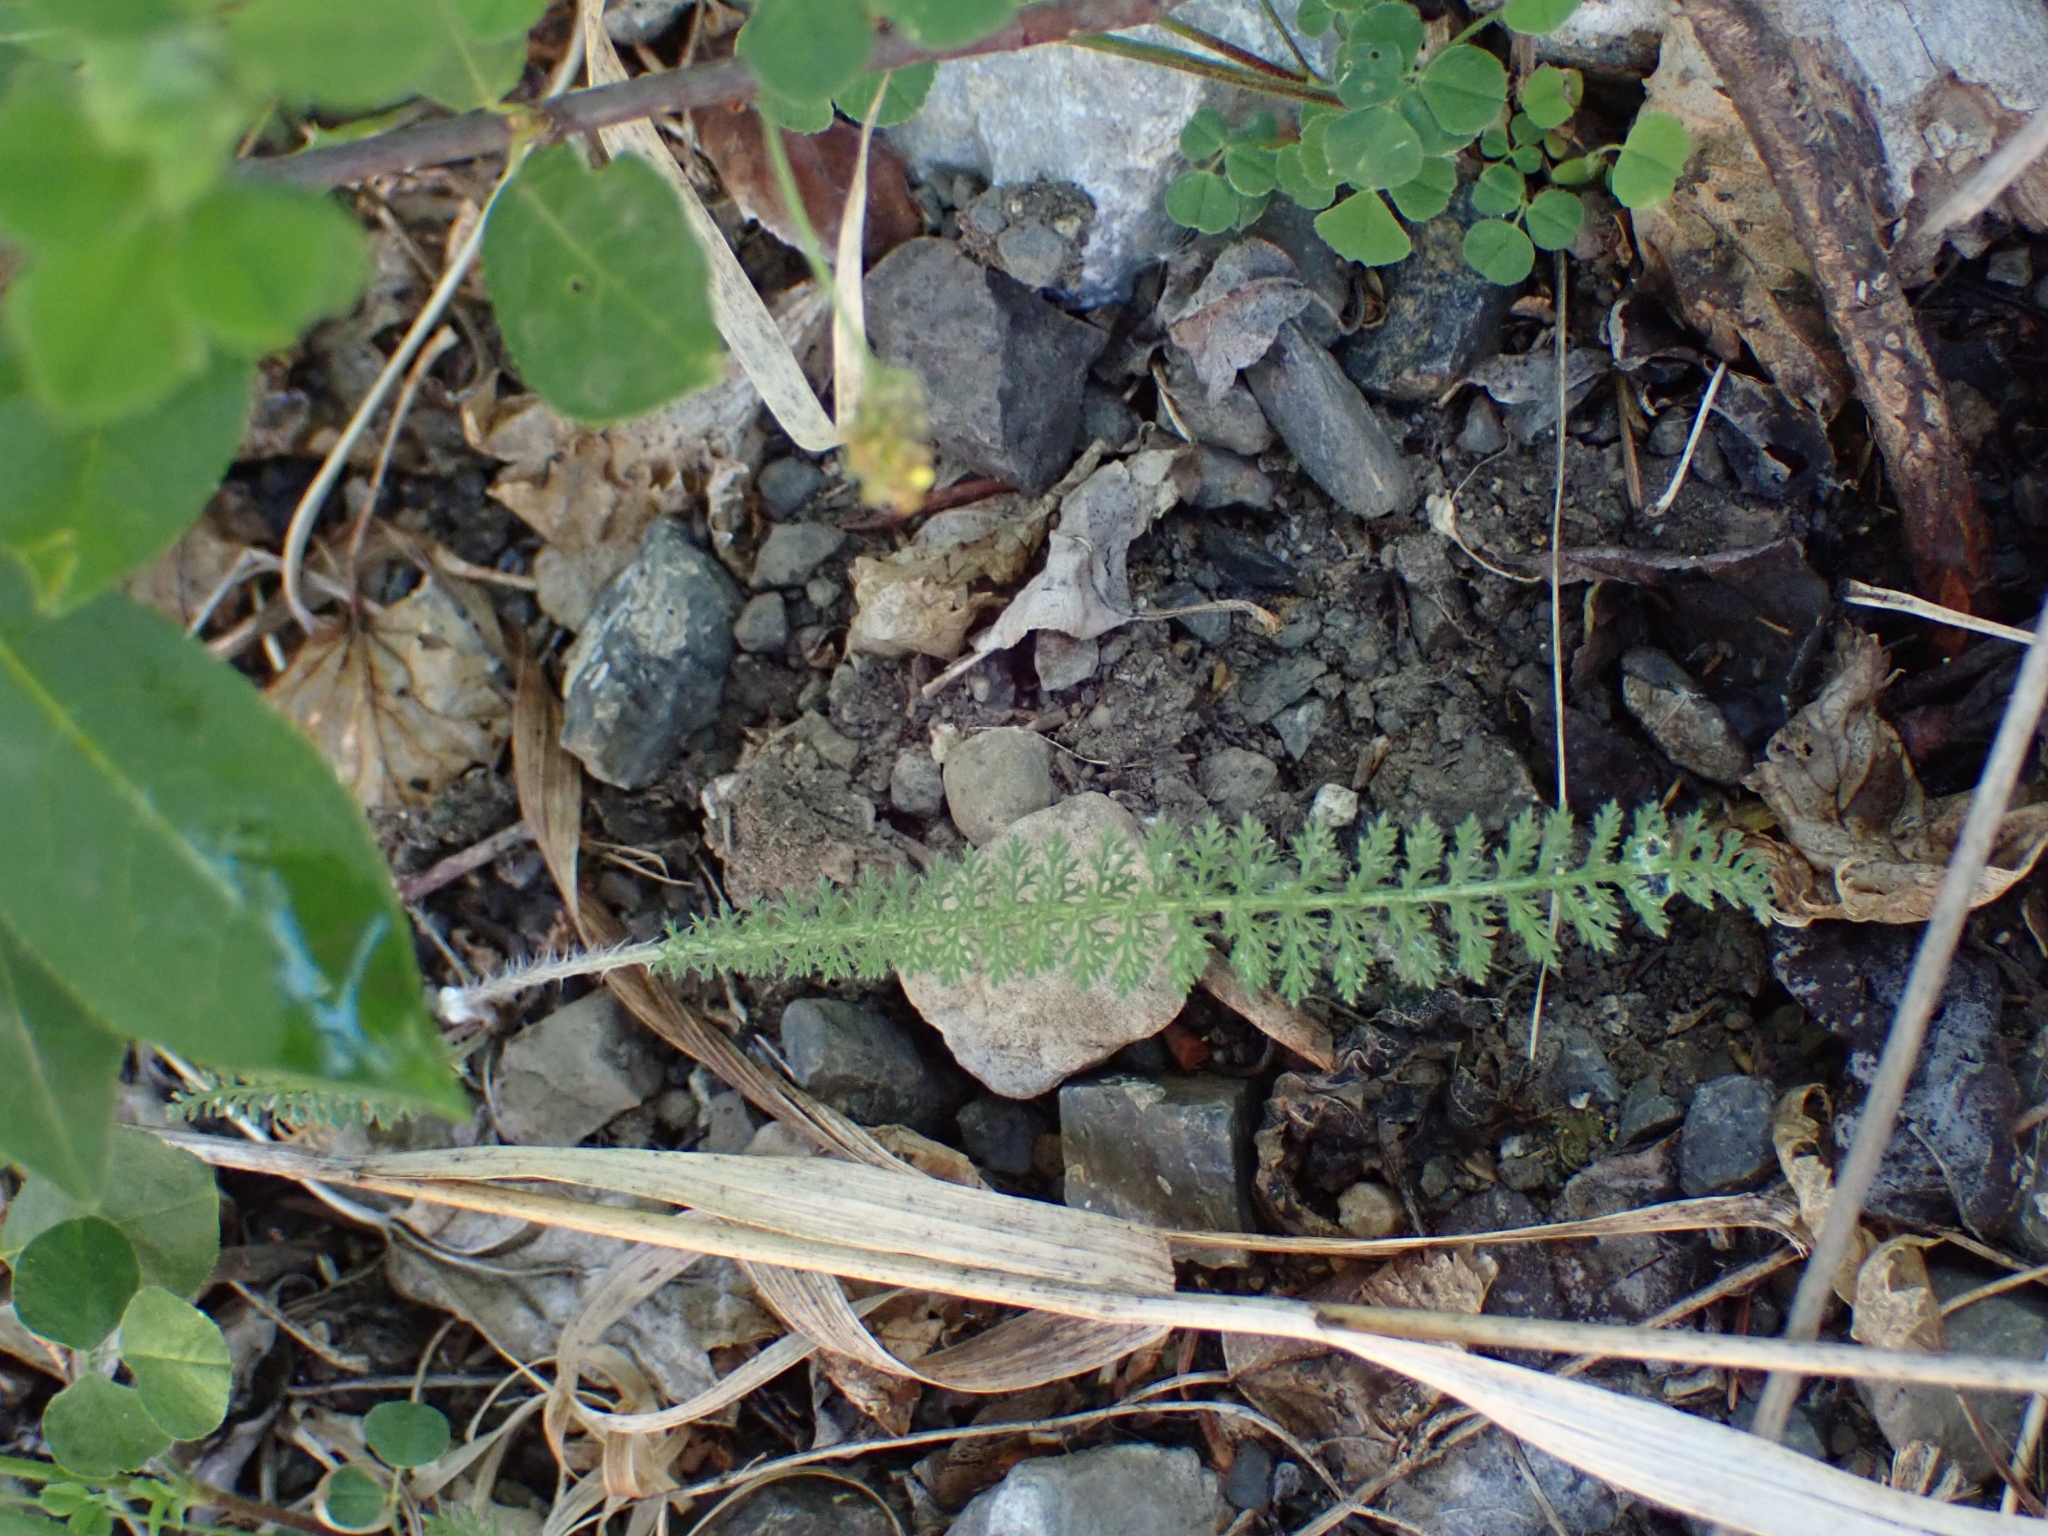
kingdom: Plantae
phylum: Tracheophyta
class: Magnoliopsida
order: Asterales
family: Asteraceae
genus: Achillea
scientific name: Achillea millefolium
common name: Yarrow
